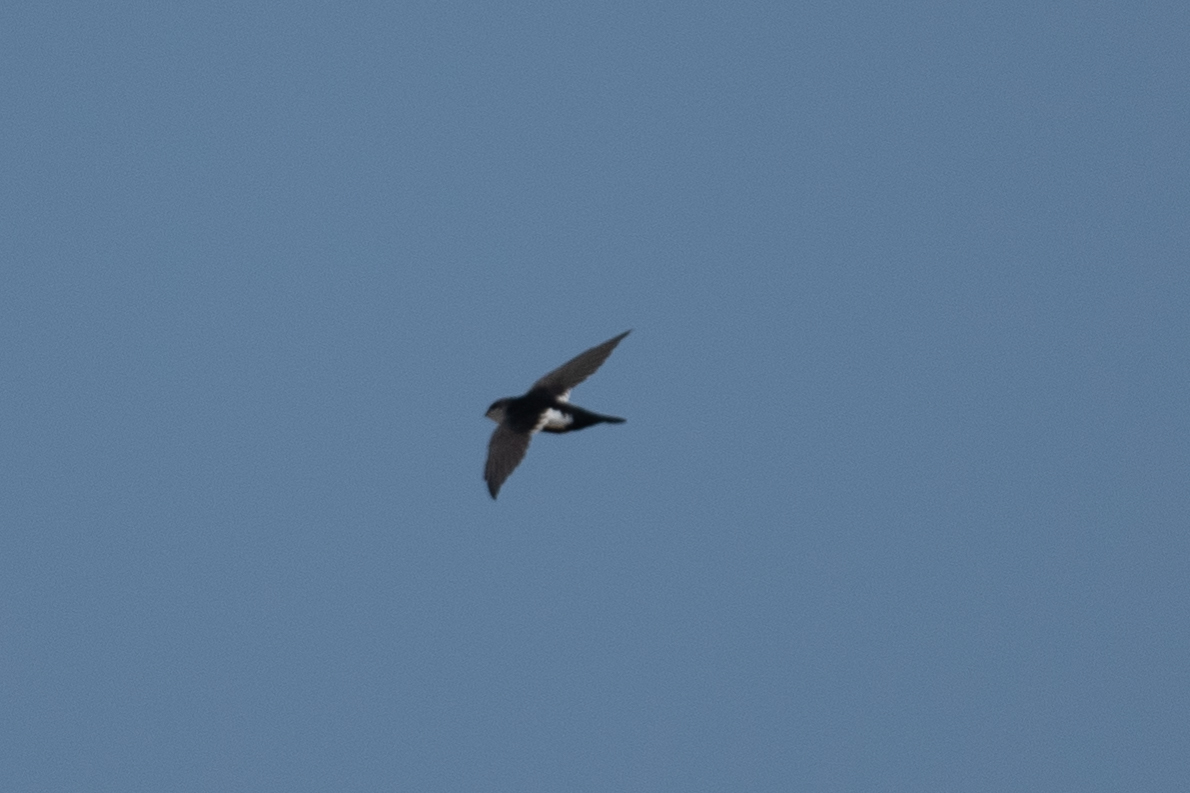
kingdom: Animalia
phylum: Chordata
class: Aves
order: Apodiformes
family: Apodidae
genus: Aeronautes
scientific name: Aeronautes saxatalis
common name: White-throated swift
